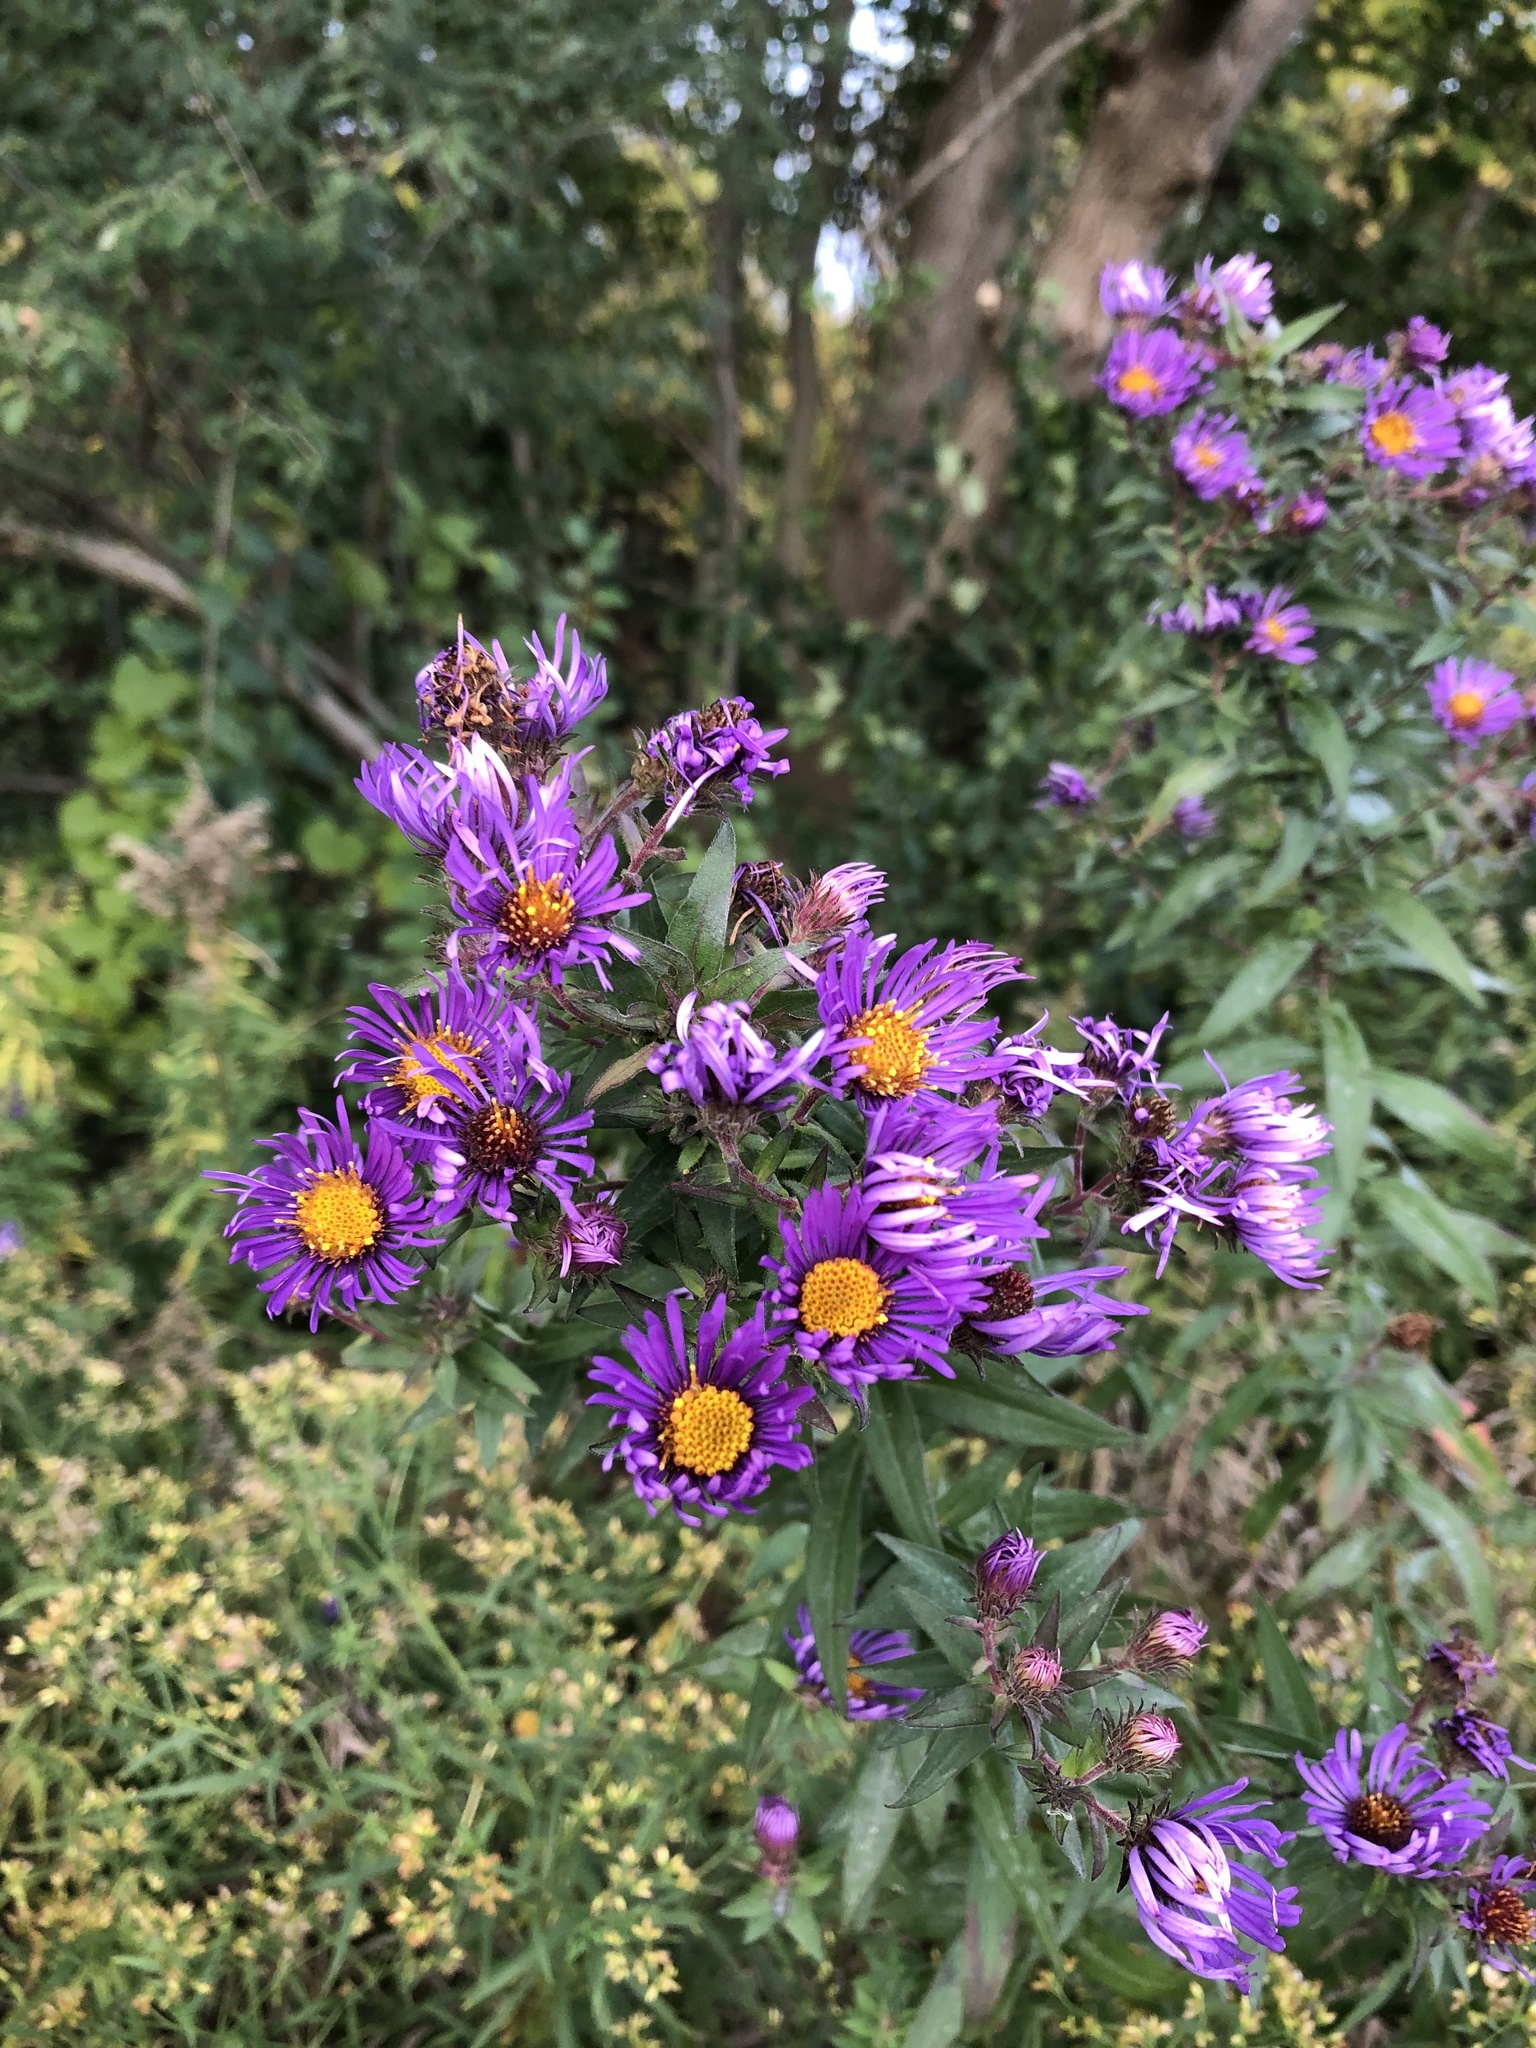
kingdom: Plantae
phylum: Tracheophyta
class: Magnoliopsida
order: Asterales
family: Asteraceae
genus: Symphyotrichum
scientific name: Symphyotrichum novae-angliae
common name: Michaelmas daisy
